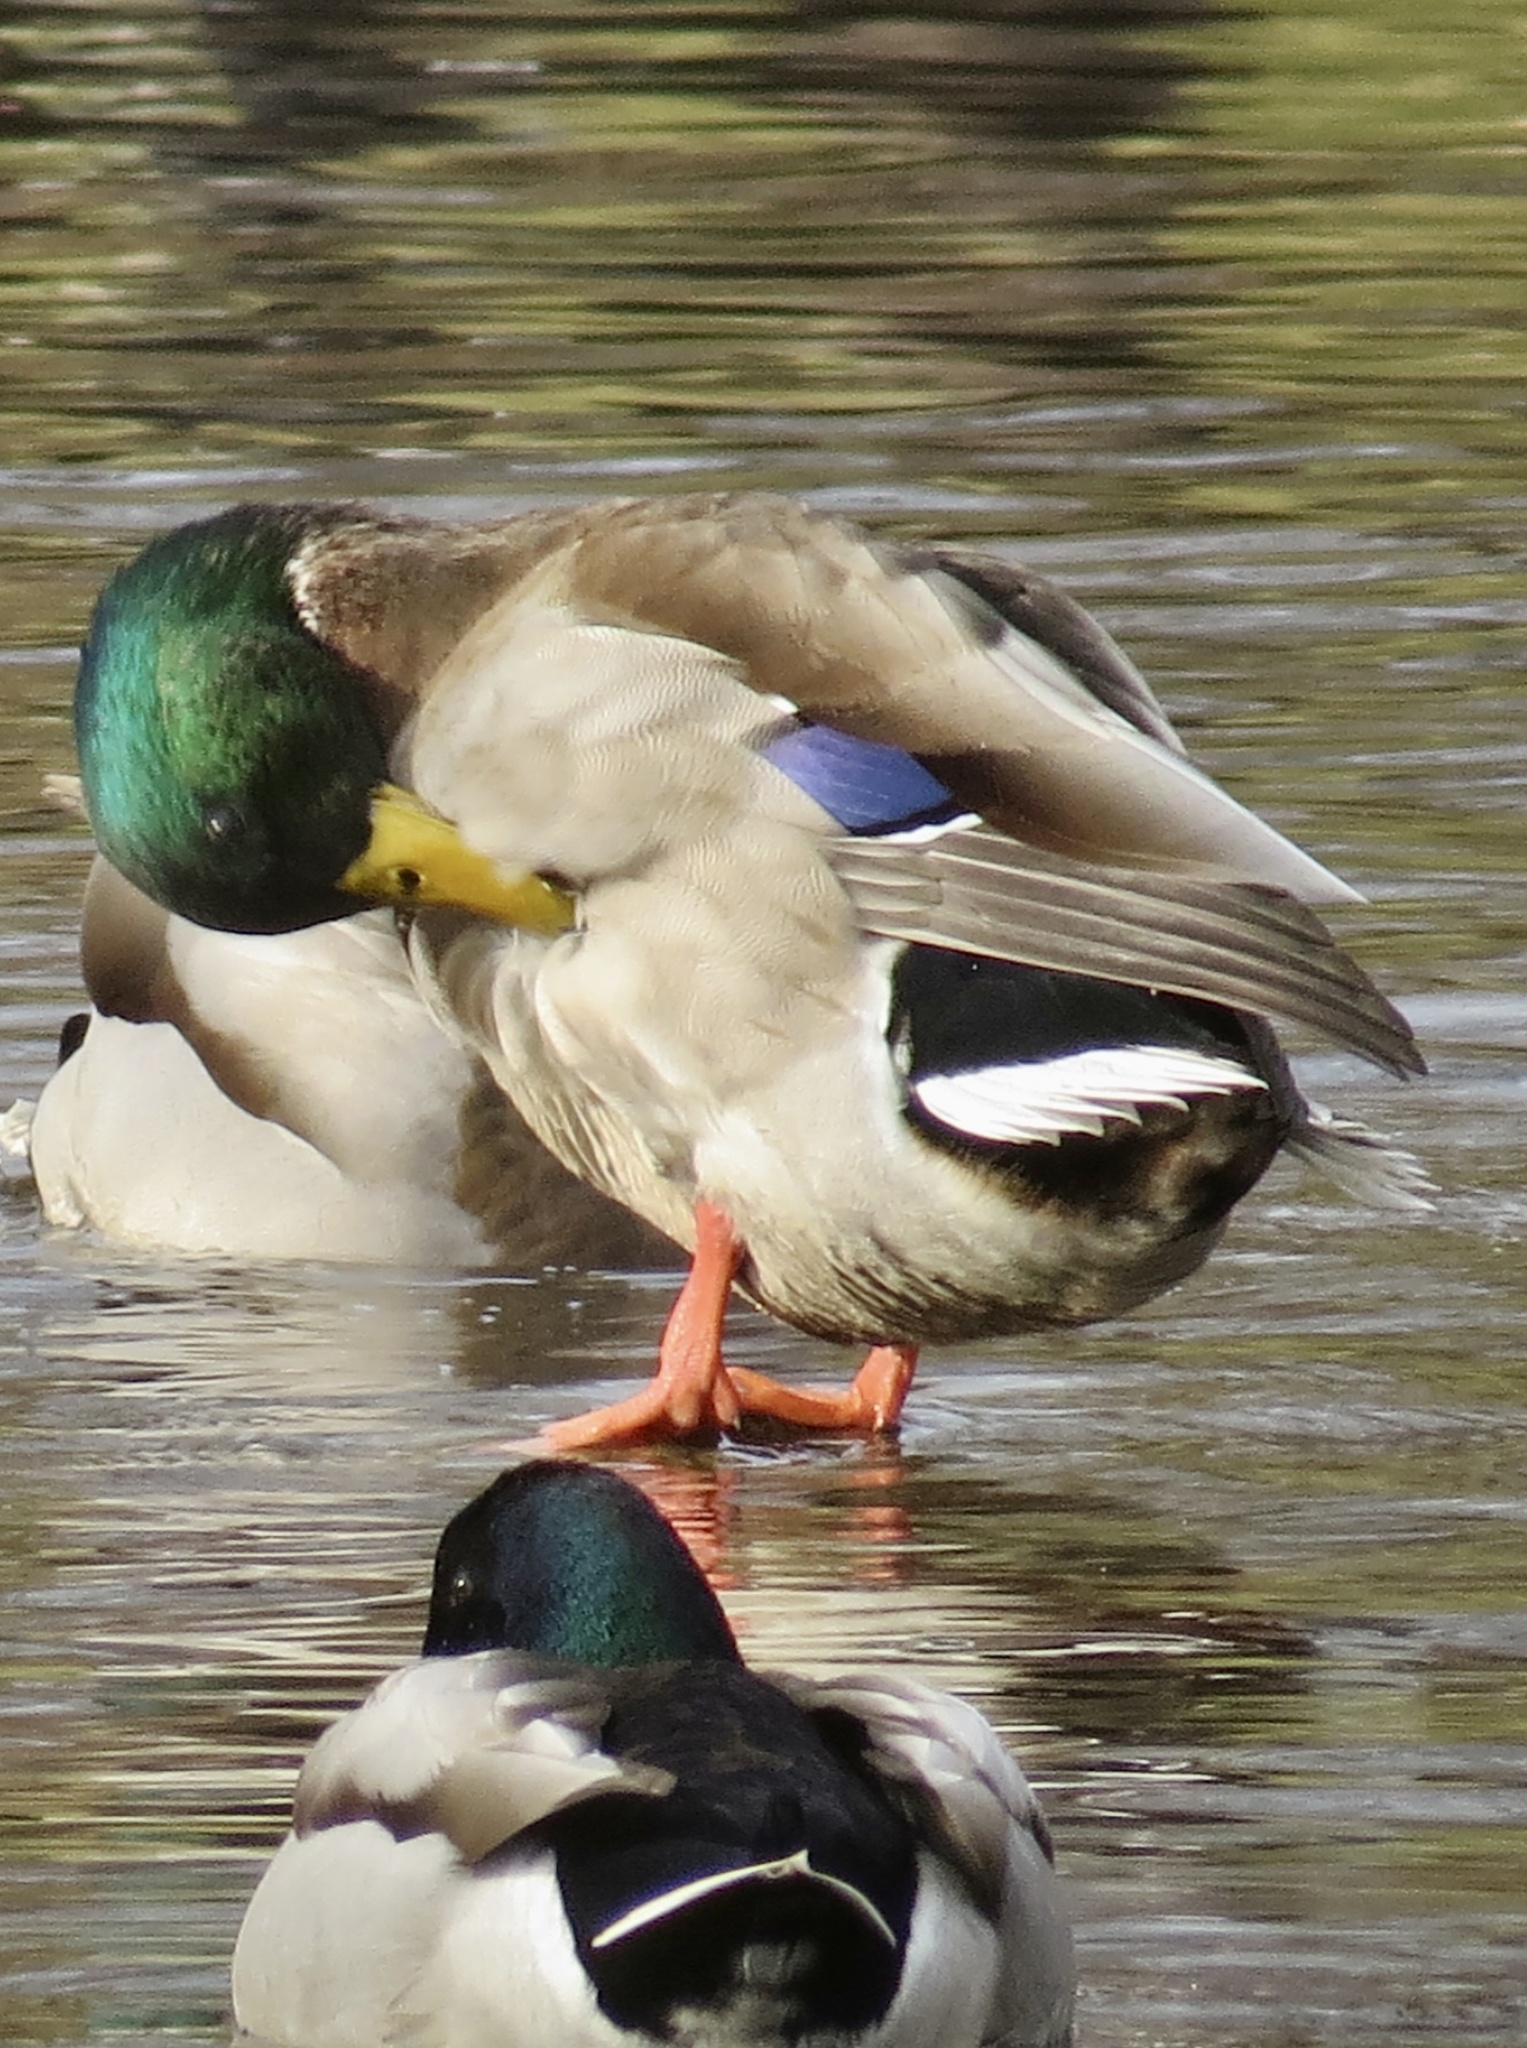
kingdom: Animalia
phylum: Chordata
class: Aves
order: Anseriformes
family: Anatidae
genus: Anas
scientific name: Anas platyrhynchos
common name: Mallard
